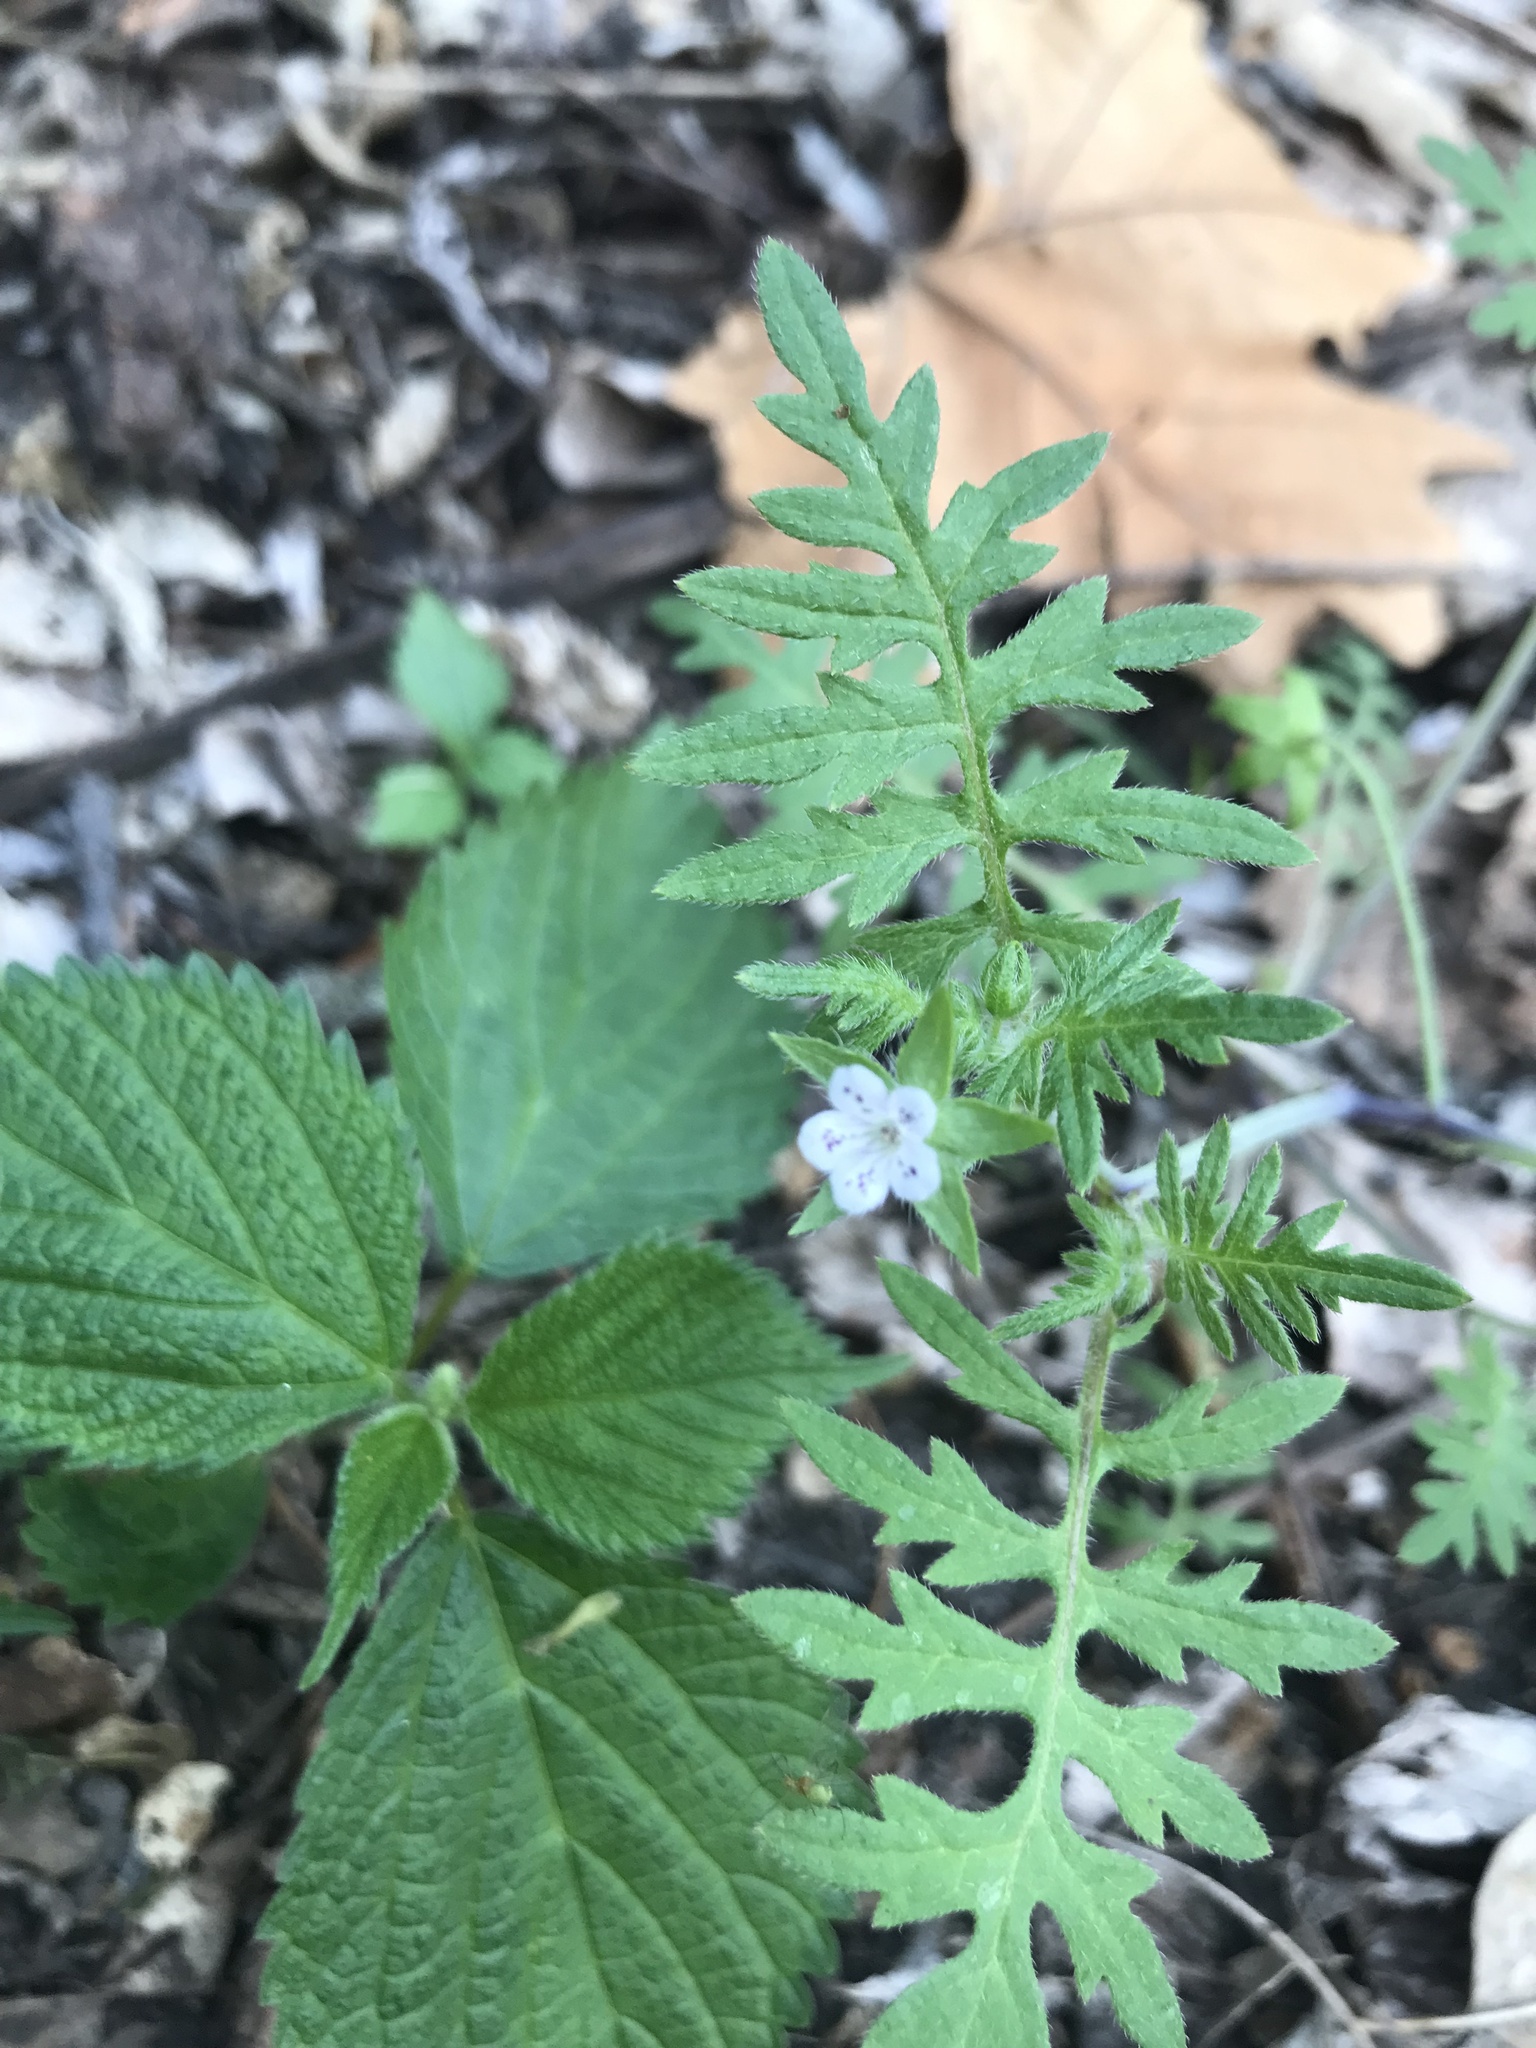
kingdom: Plantae
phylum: Tracheophyta
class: Magnoliopsida
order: Boraginales
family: Hydrophyllaceae
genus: Ellisia
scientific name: Ellisia nyctelea
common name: Aunt lucy
